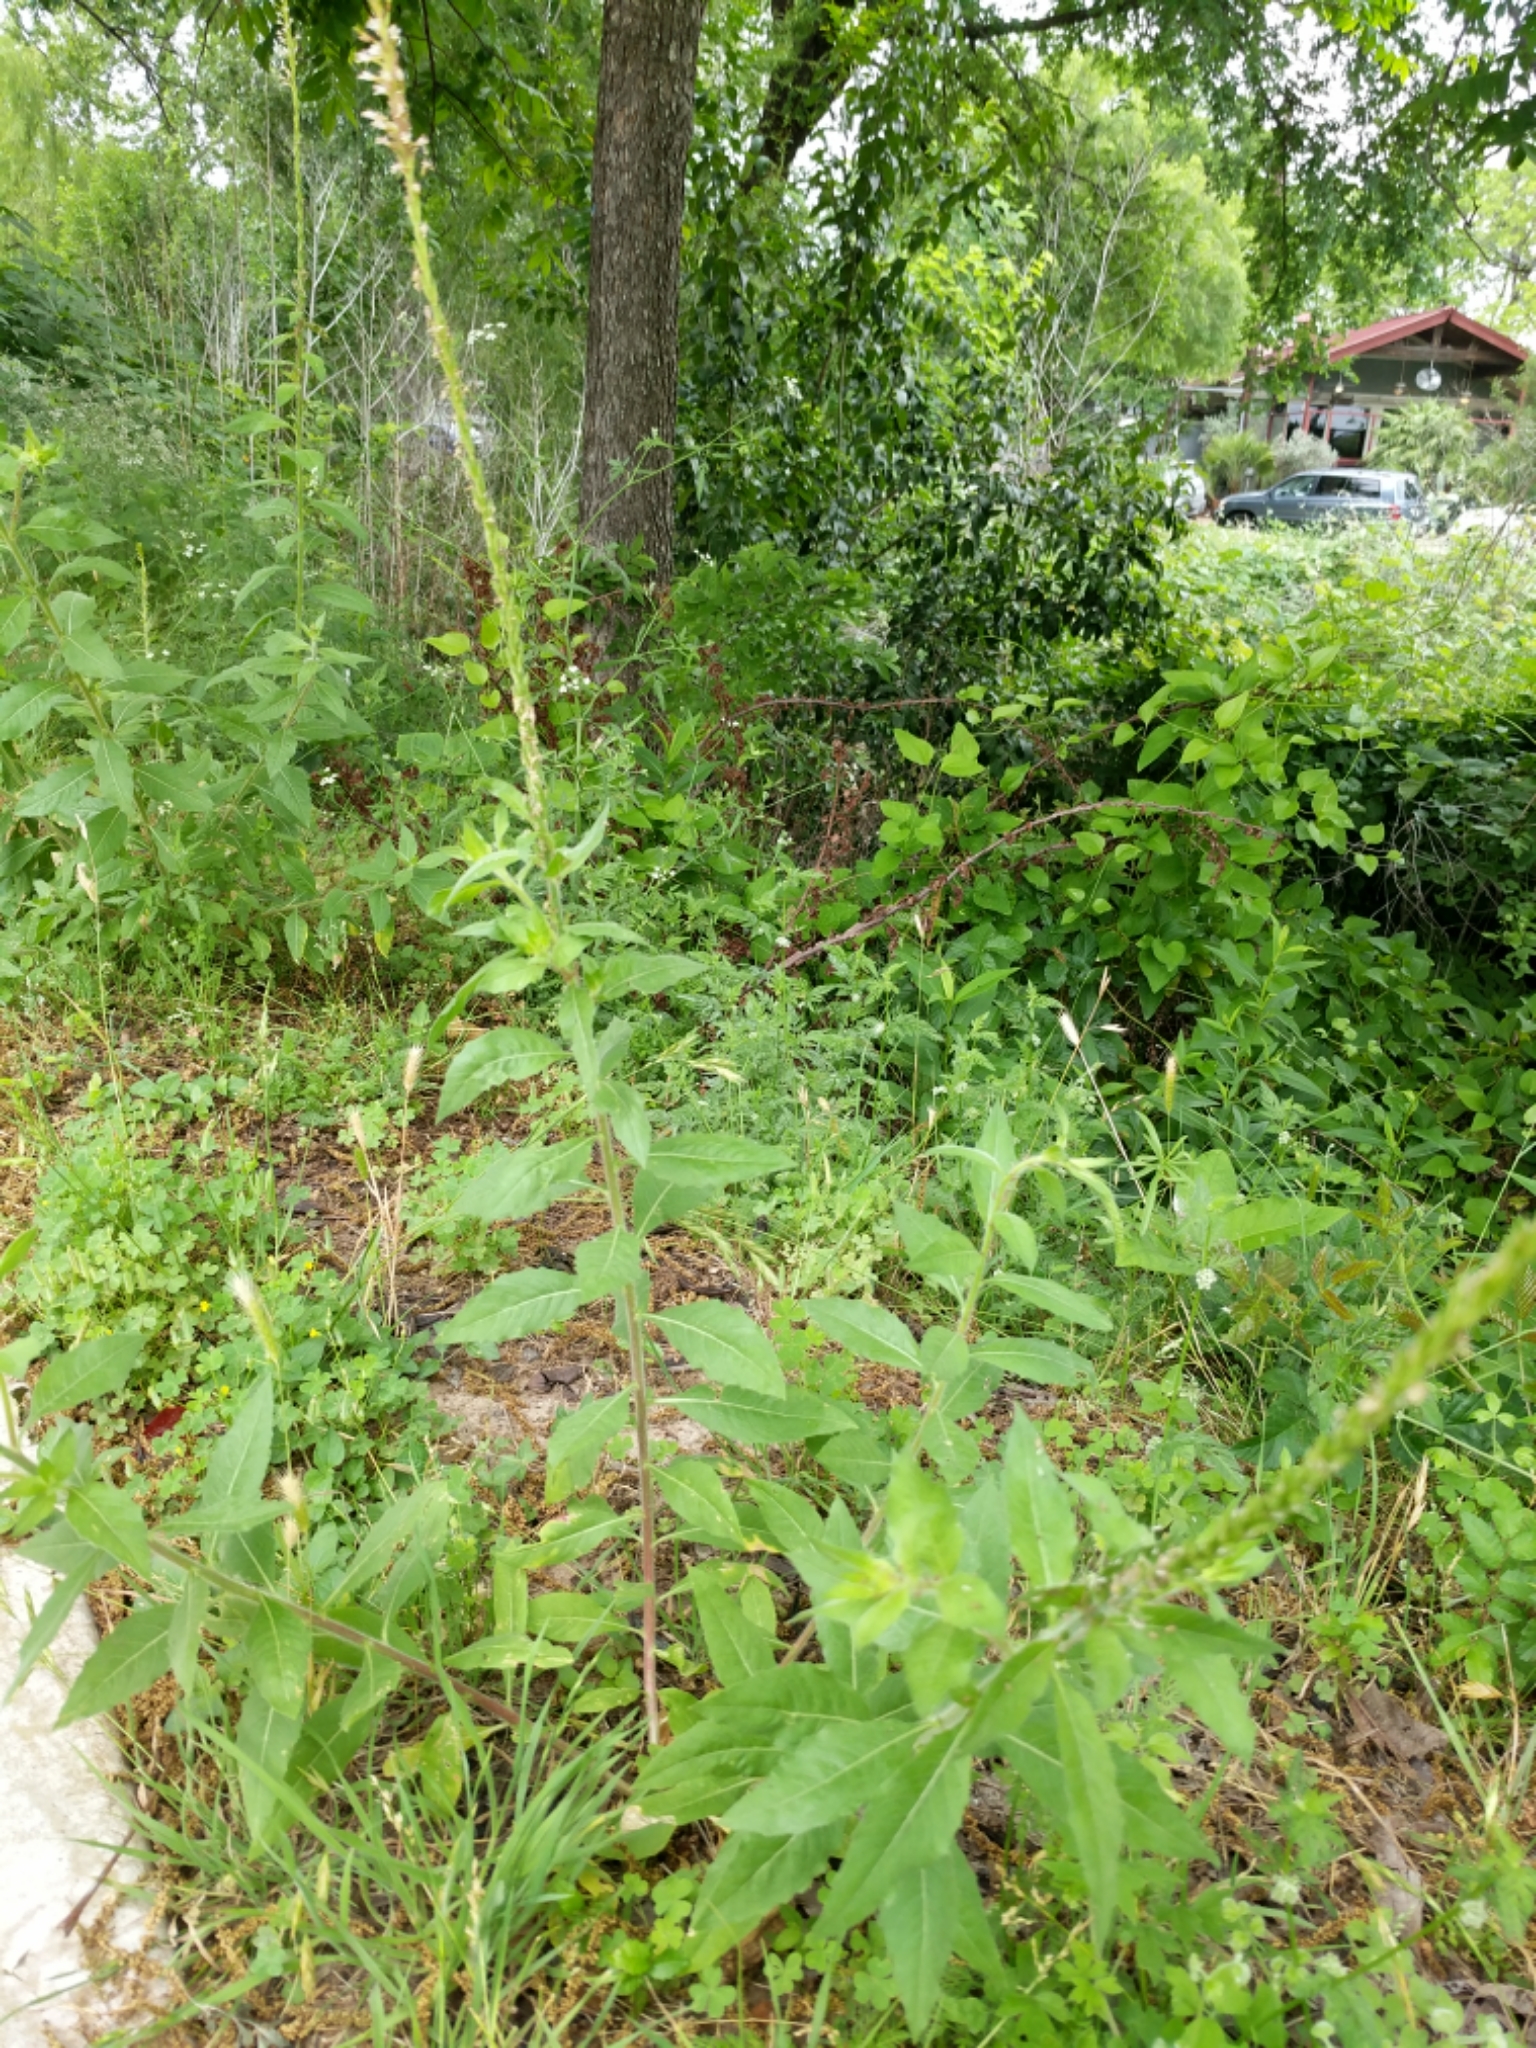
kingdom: Plantae
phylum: Tracheophyta
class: Magnoliopsida
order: Myrtales
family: Onagraceae
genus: Oenothera
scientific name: Oenothera curtiflora
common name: Velvetweed
